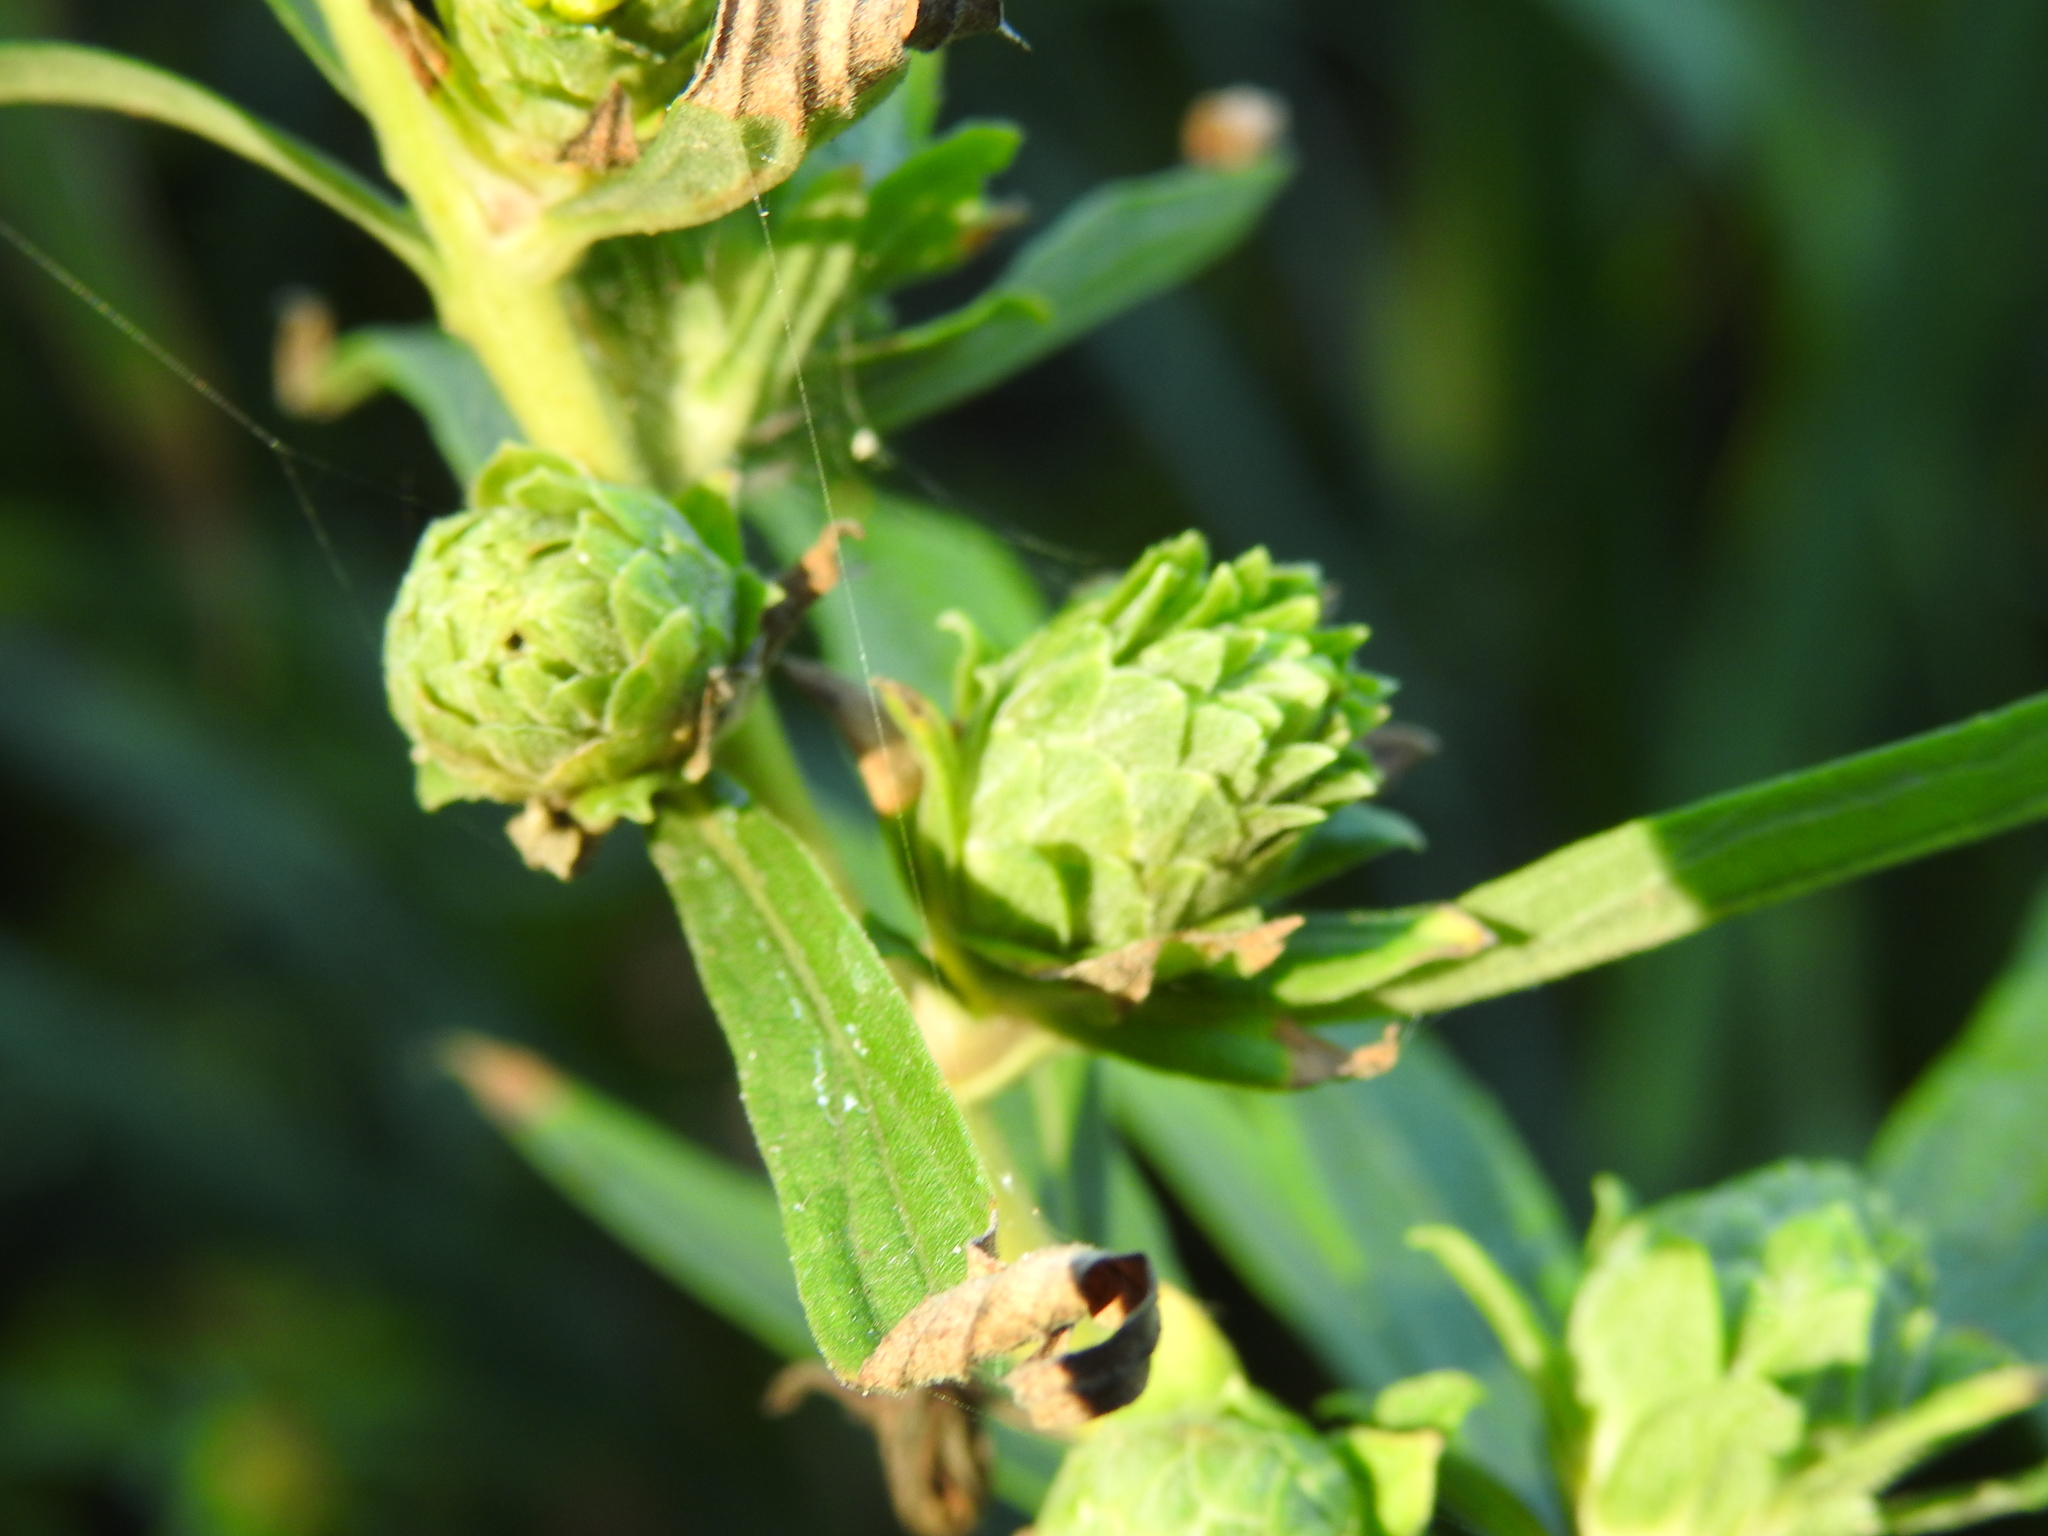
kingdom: Animalia
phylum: Arthropoda
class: Insecta
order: Diptera
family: Tephritidae
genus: Procecidochares
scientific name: Procecidochares atra
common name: Goldenrod brussels sprout gall fly
